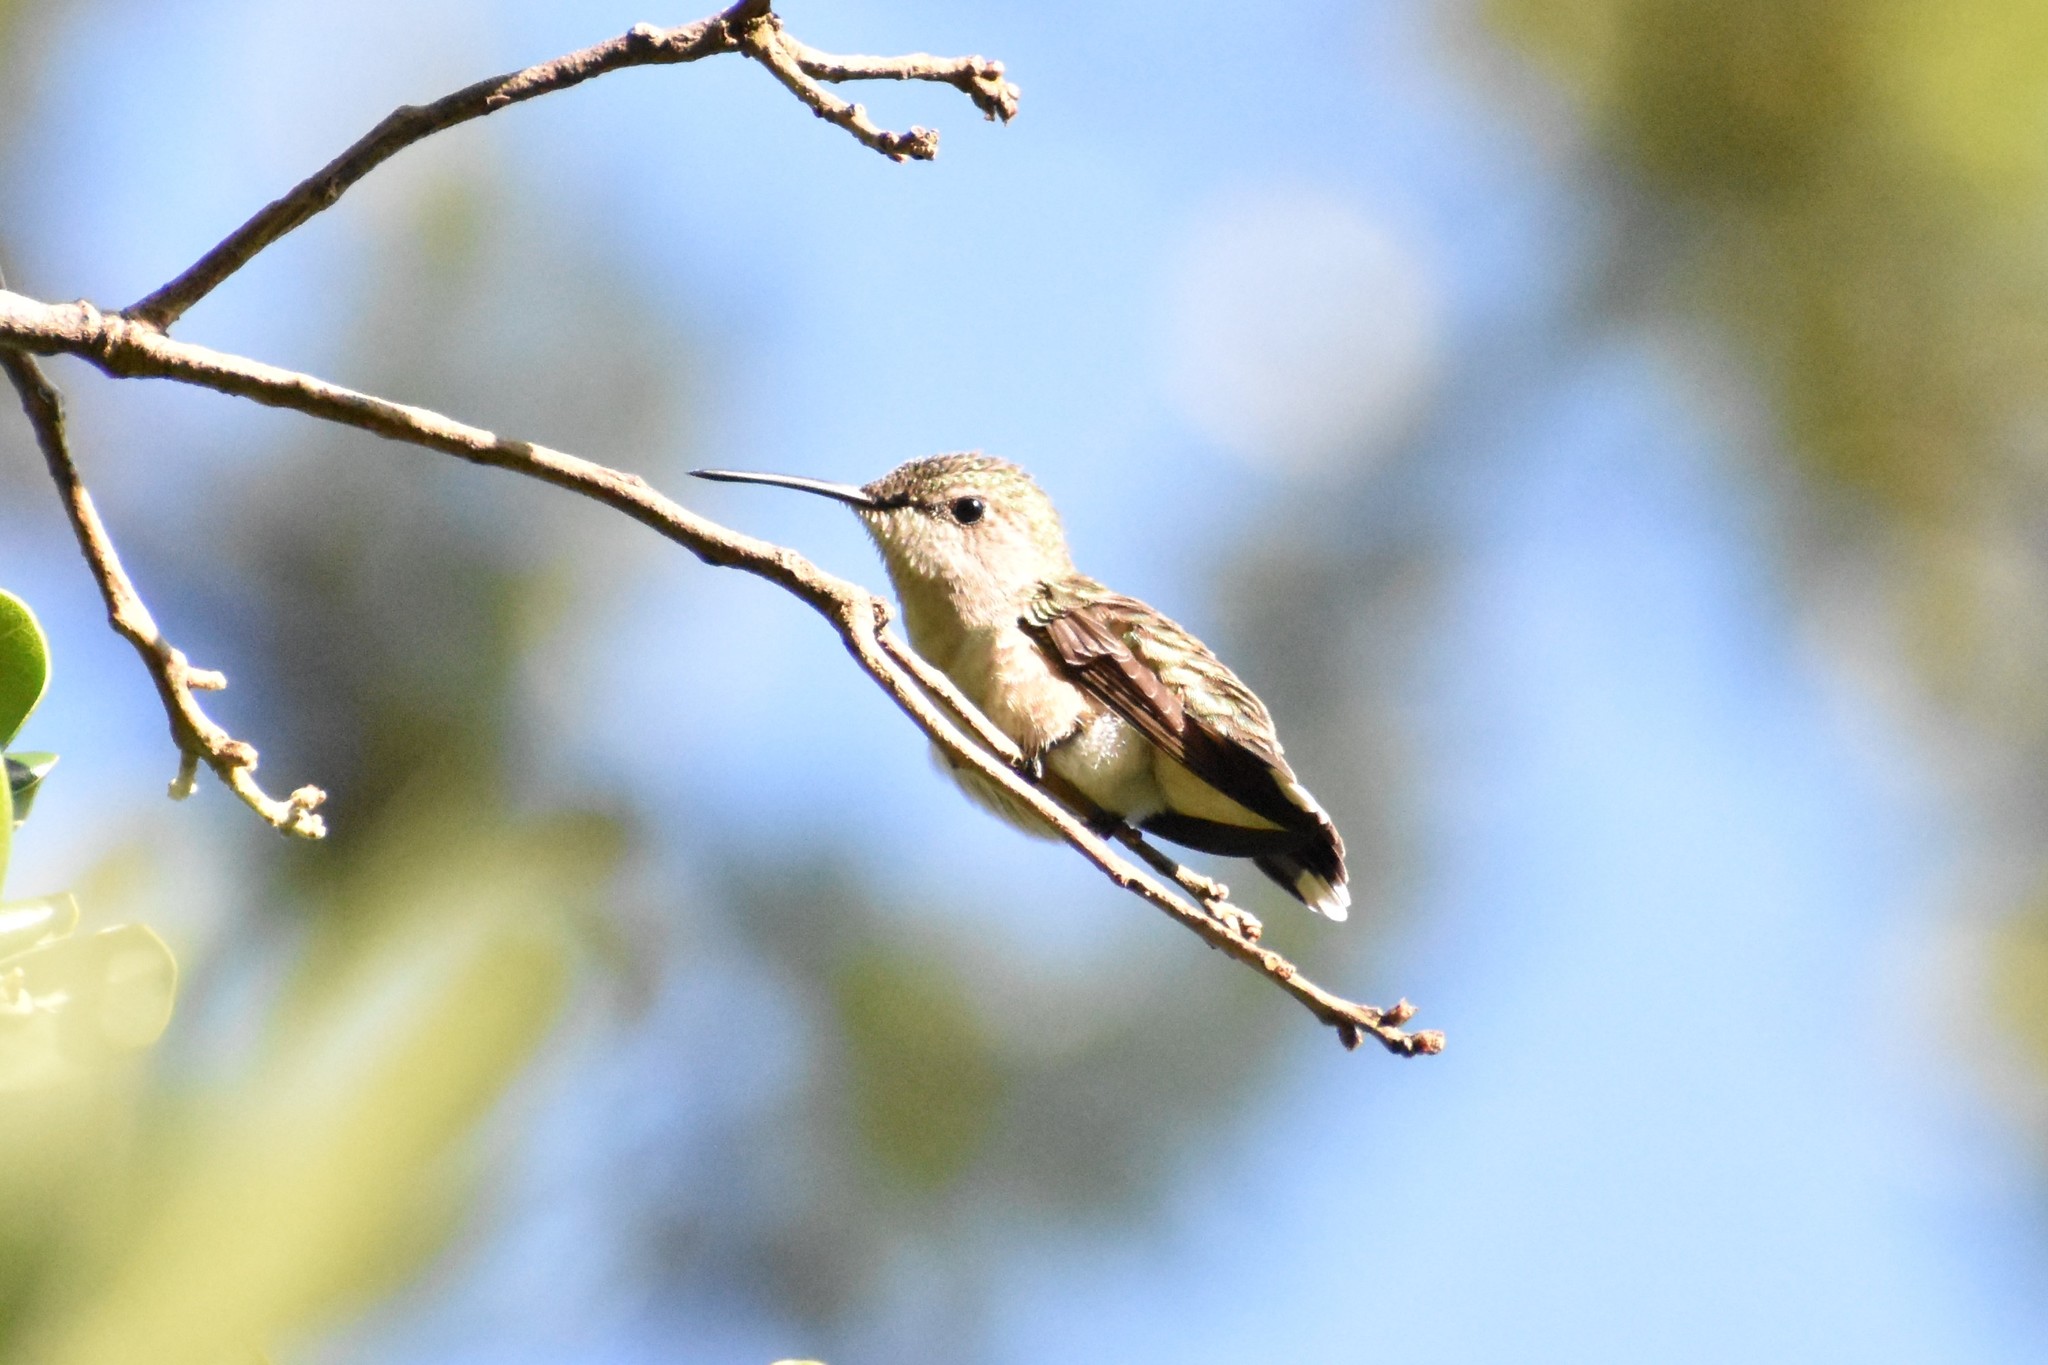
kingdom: Animalia
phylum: Chordata
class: Aves
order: Apodiformes
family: Trochilidae
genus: Archilochus
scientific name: Archilochus colubris
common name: Ruby-throated hummingbird
